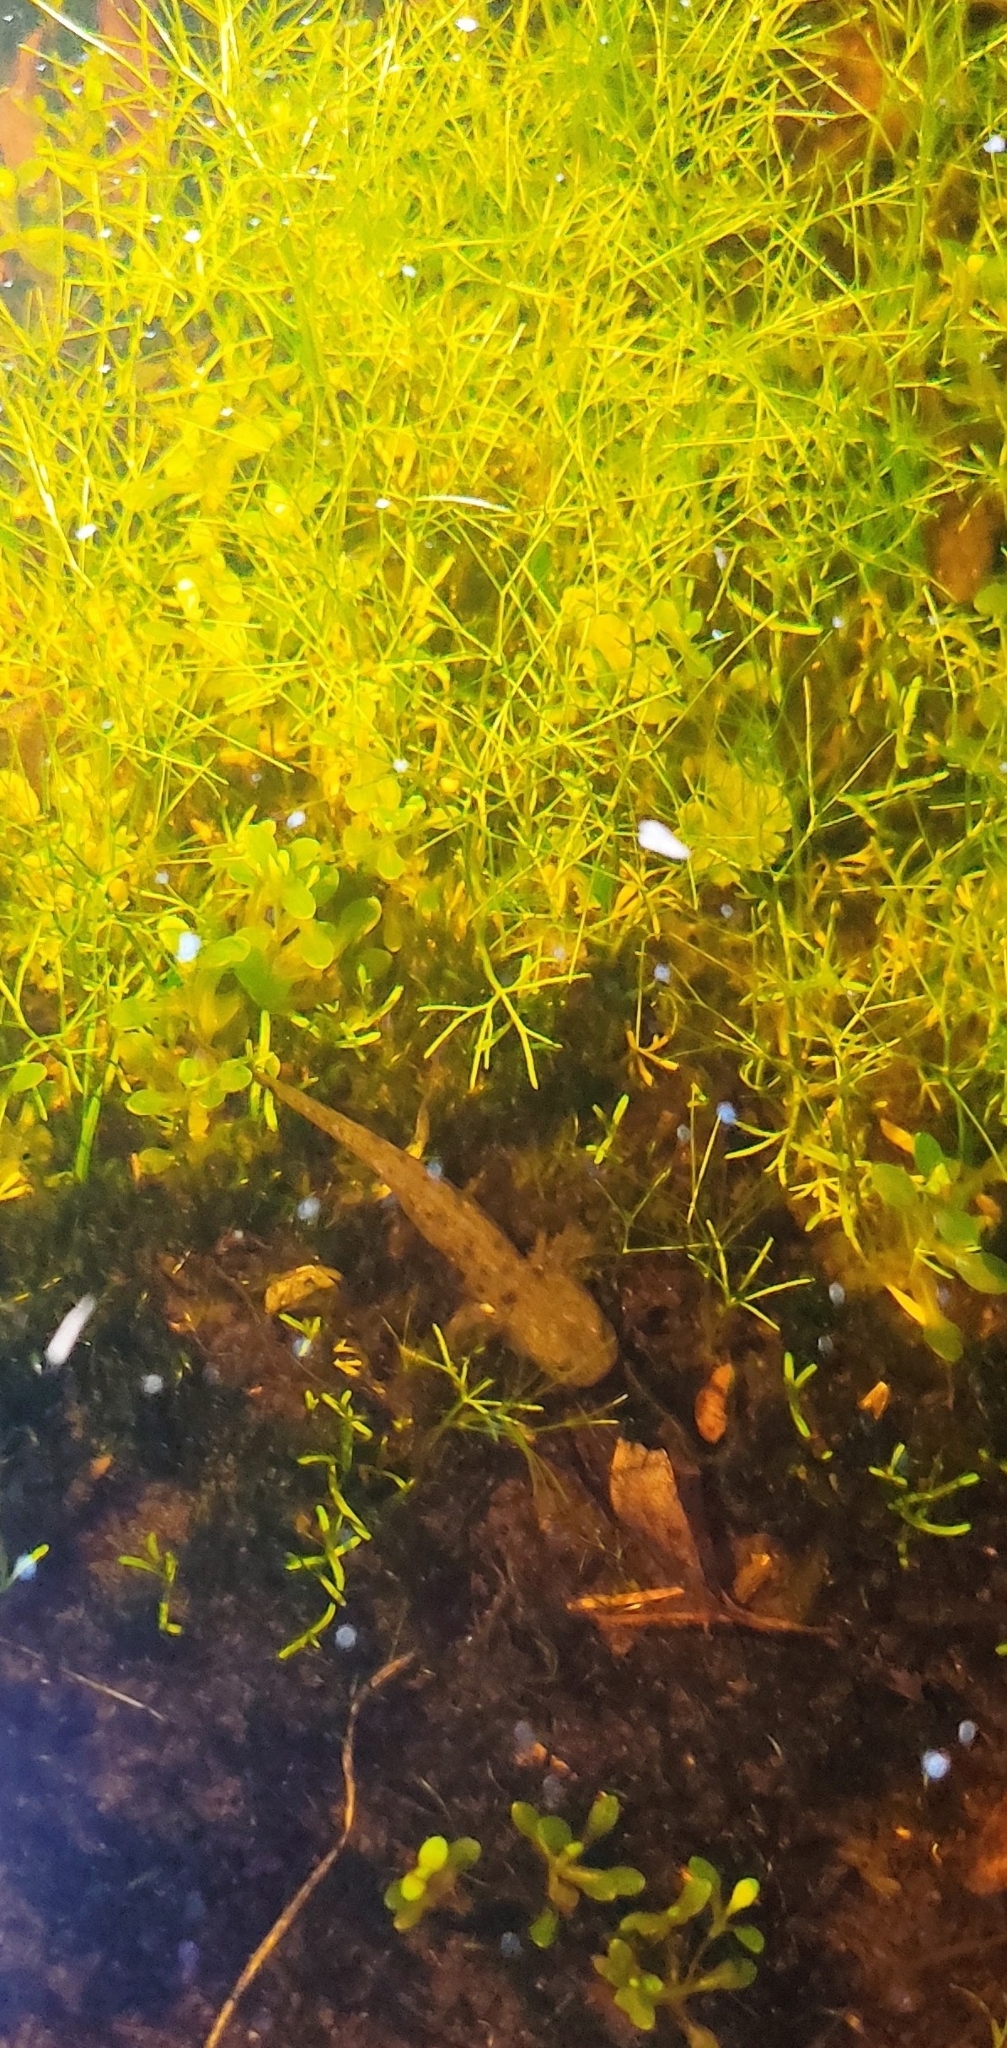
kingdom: Animalia
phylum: Chordata
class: Amphibia
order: Caudata
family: Salamandridae
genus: Salamandra
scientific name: Salamandra salamandra
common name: Fire salamander
